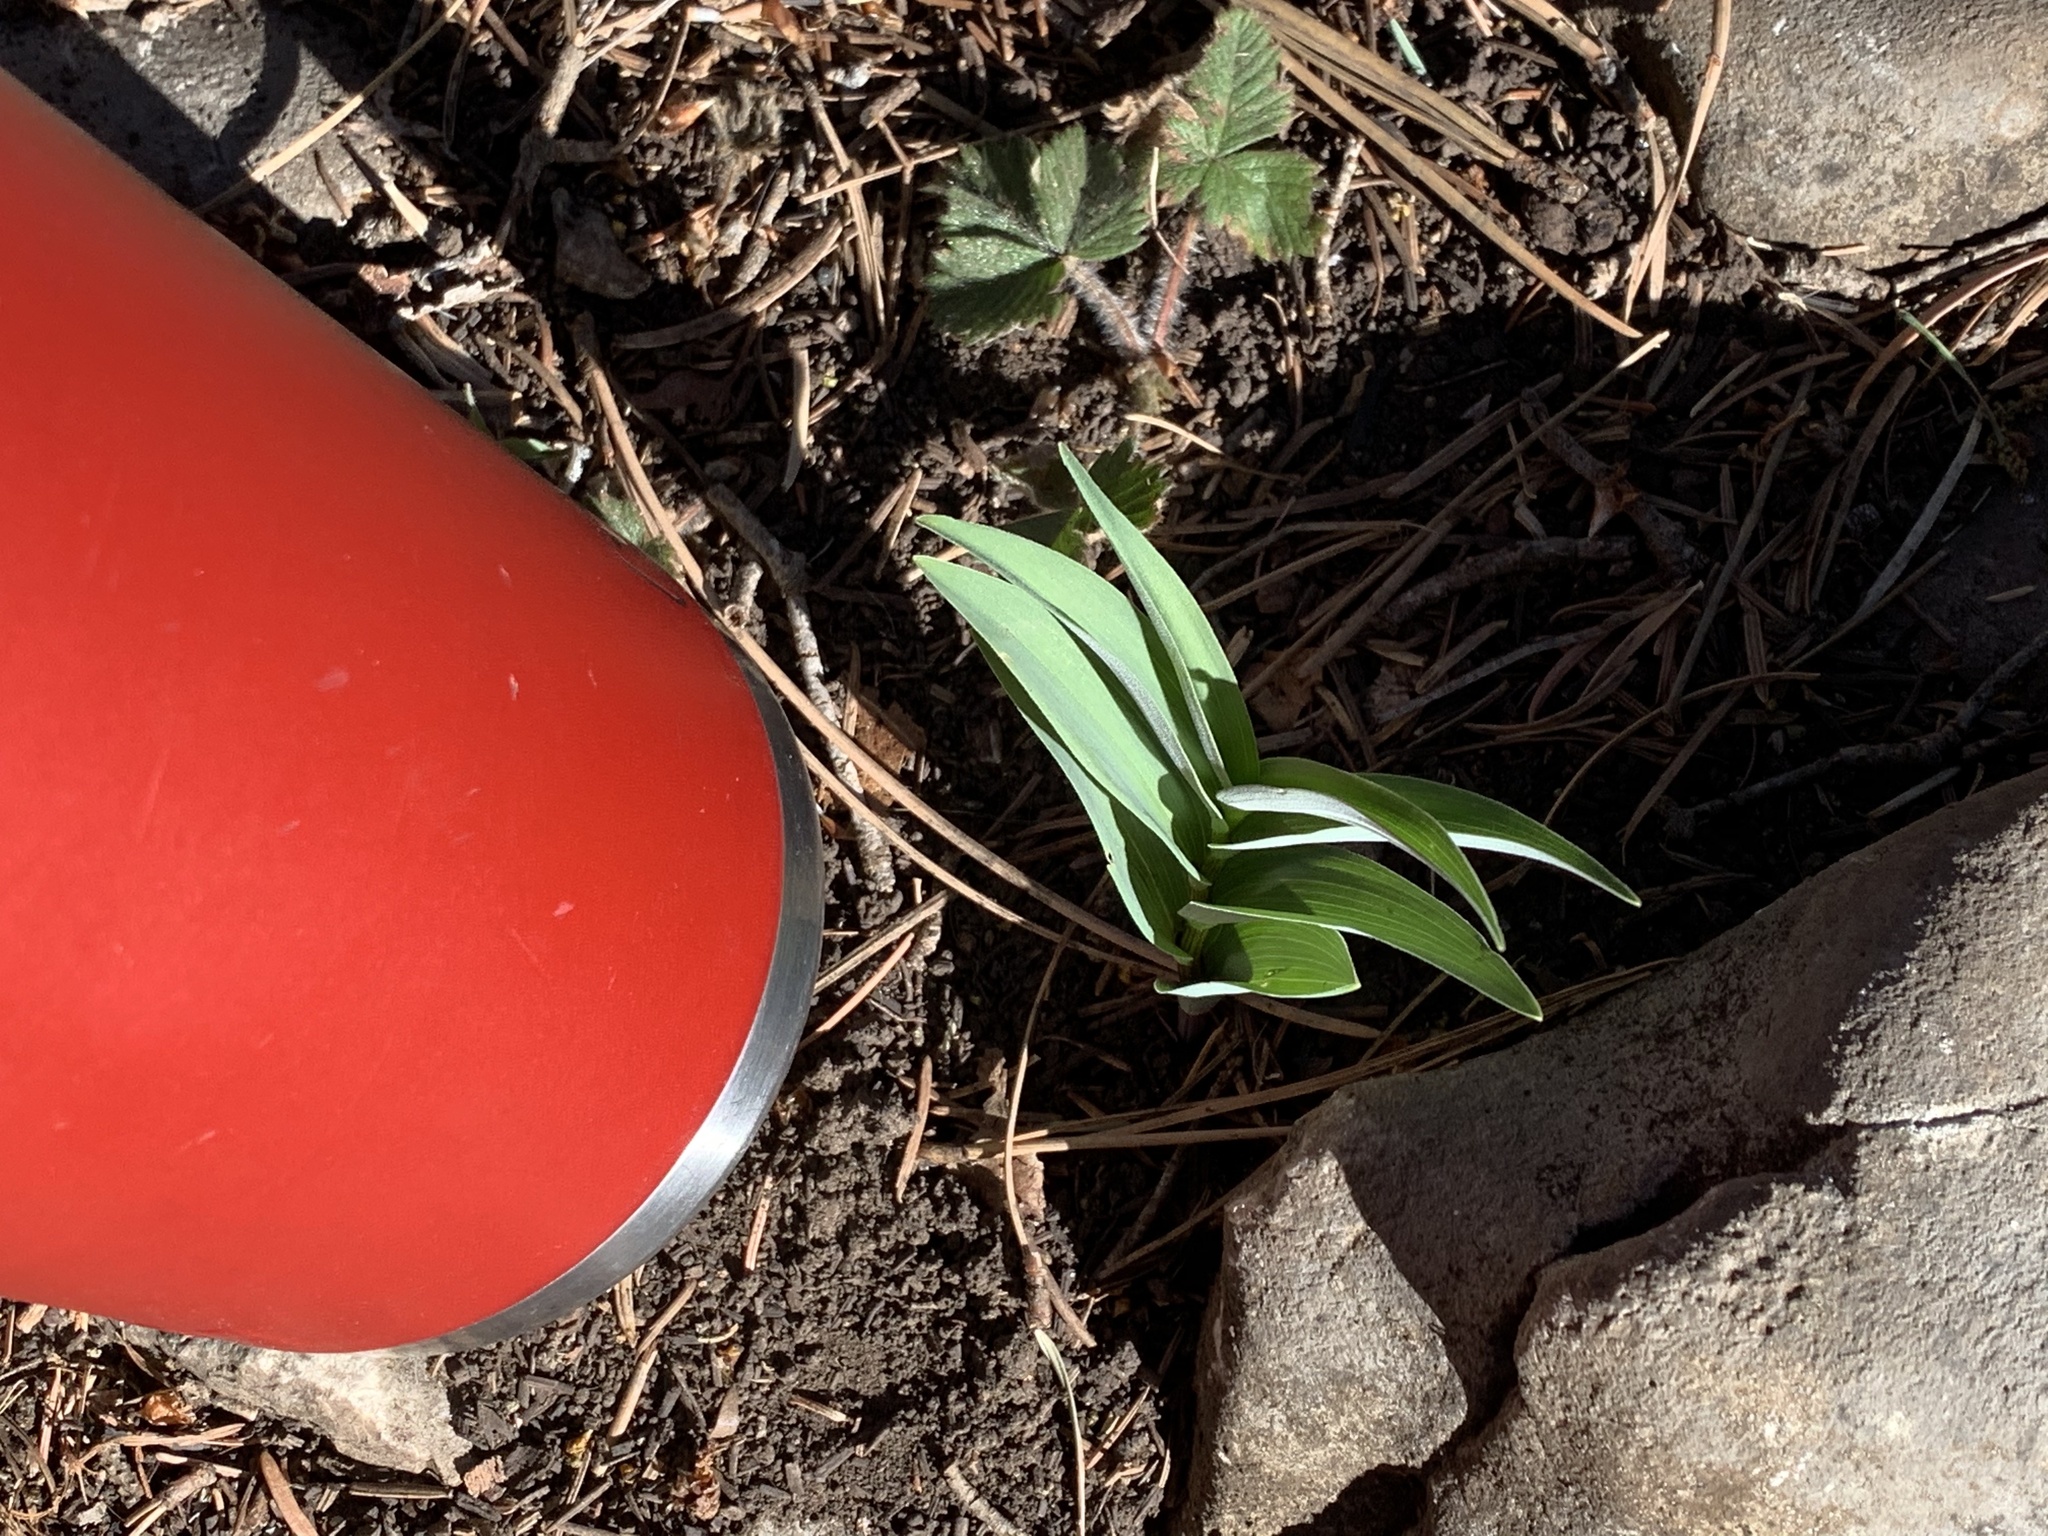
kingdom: Plantae
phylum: Tracheophyta
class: Liliopsida
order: Asparagales
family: Asparagaceae
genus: Maianthemum
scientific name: Maianthemum stellatum
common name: Little false solomon's seal
